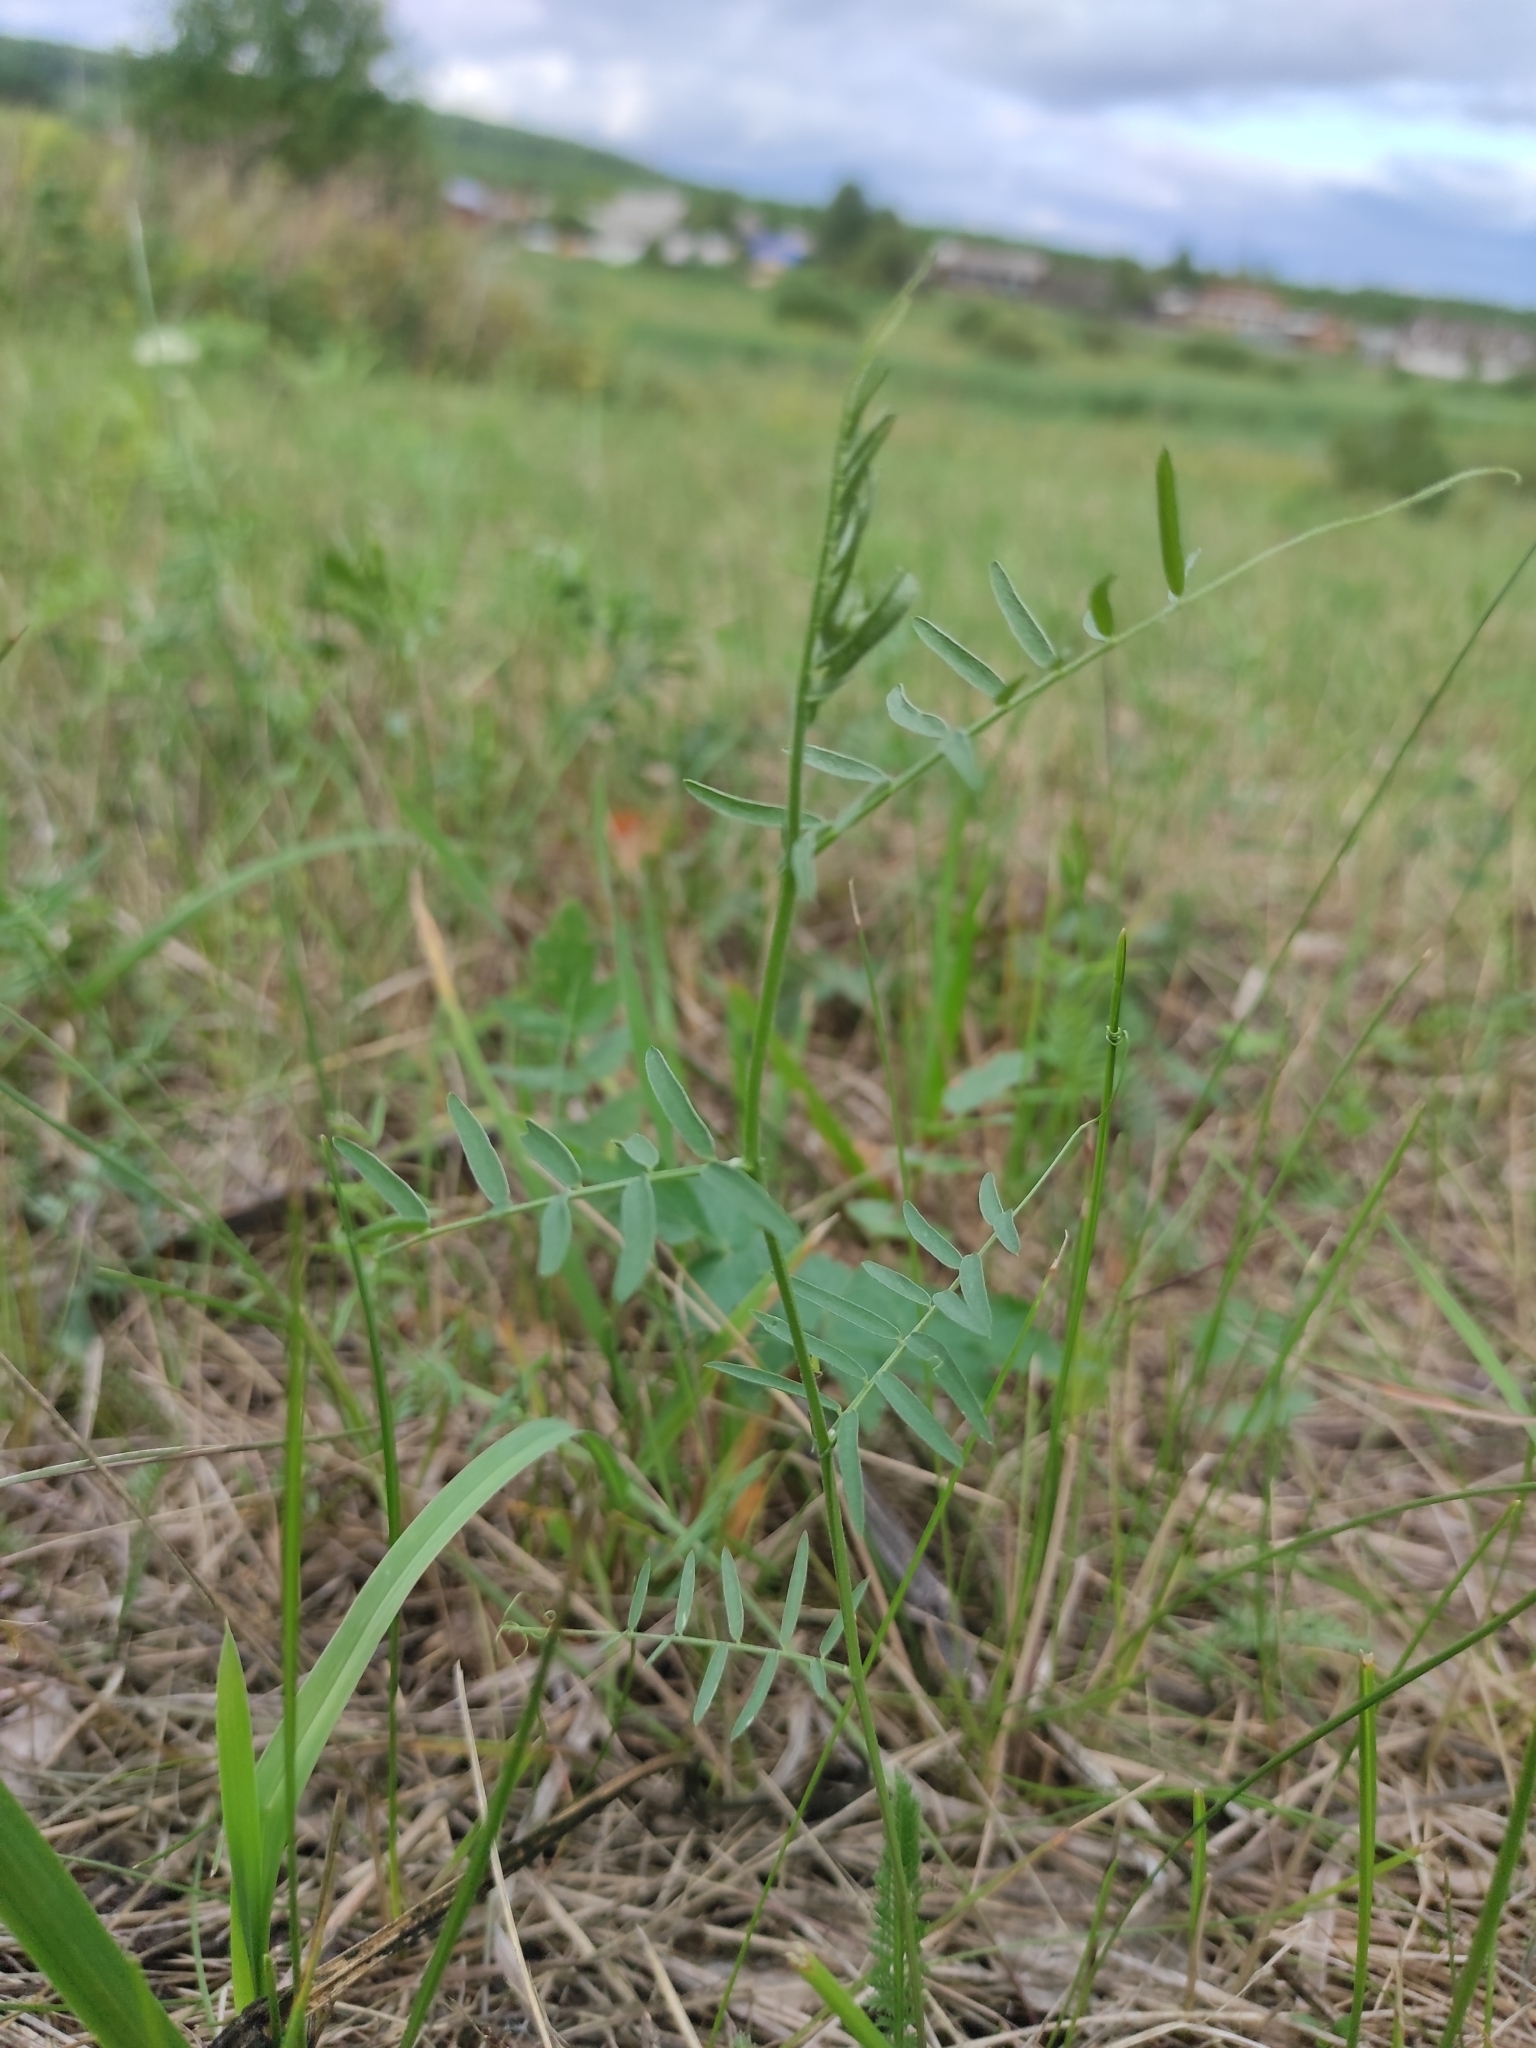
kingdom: Plantae
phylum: Tracheophyta
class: Magnoliopsida
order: Fabales
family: Fabaceae
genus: Vicia
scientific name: Vicia tenuifolia
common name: Fine-leaved vetch
